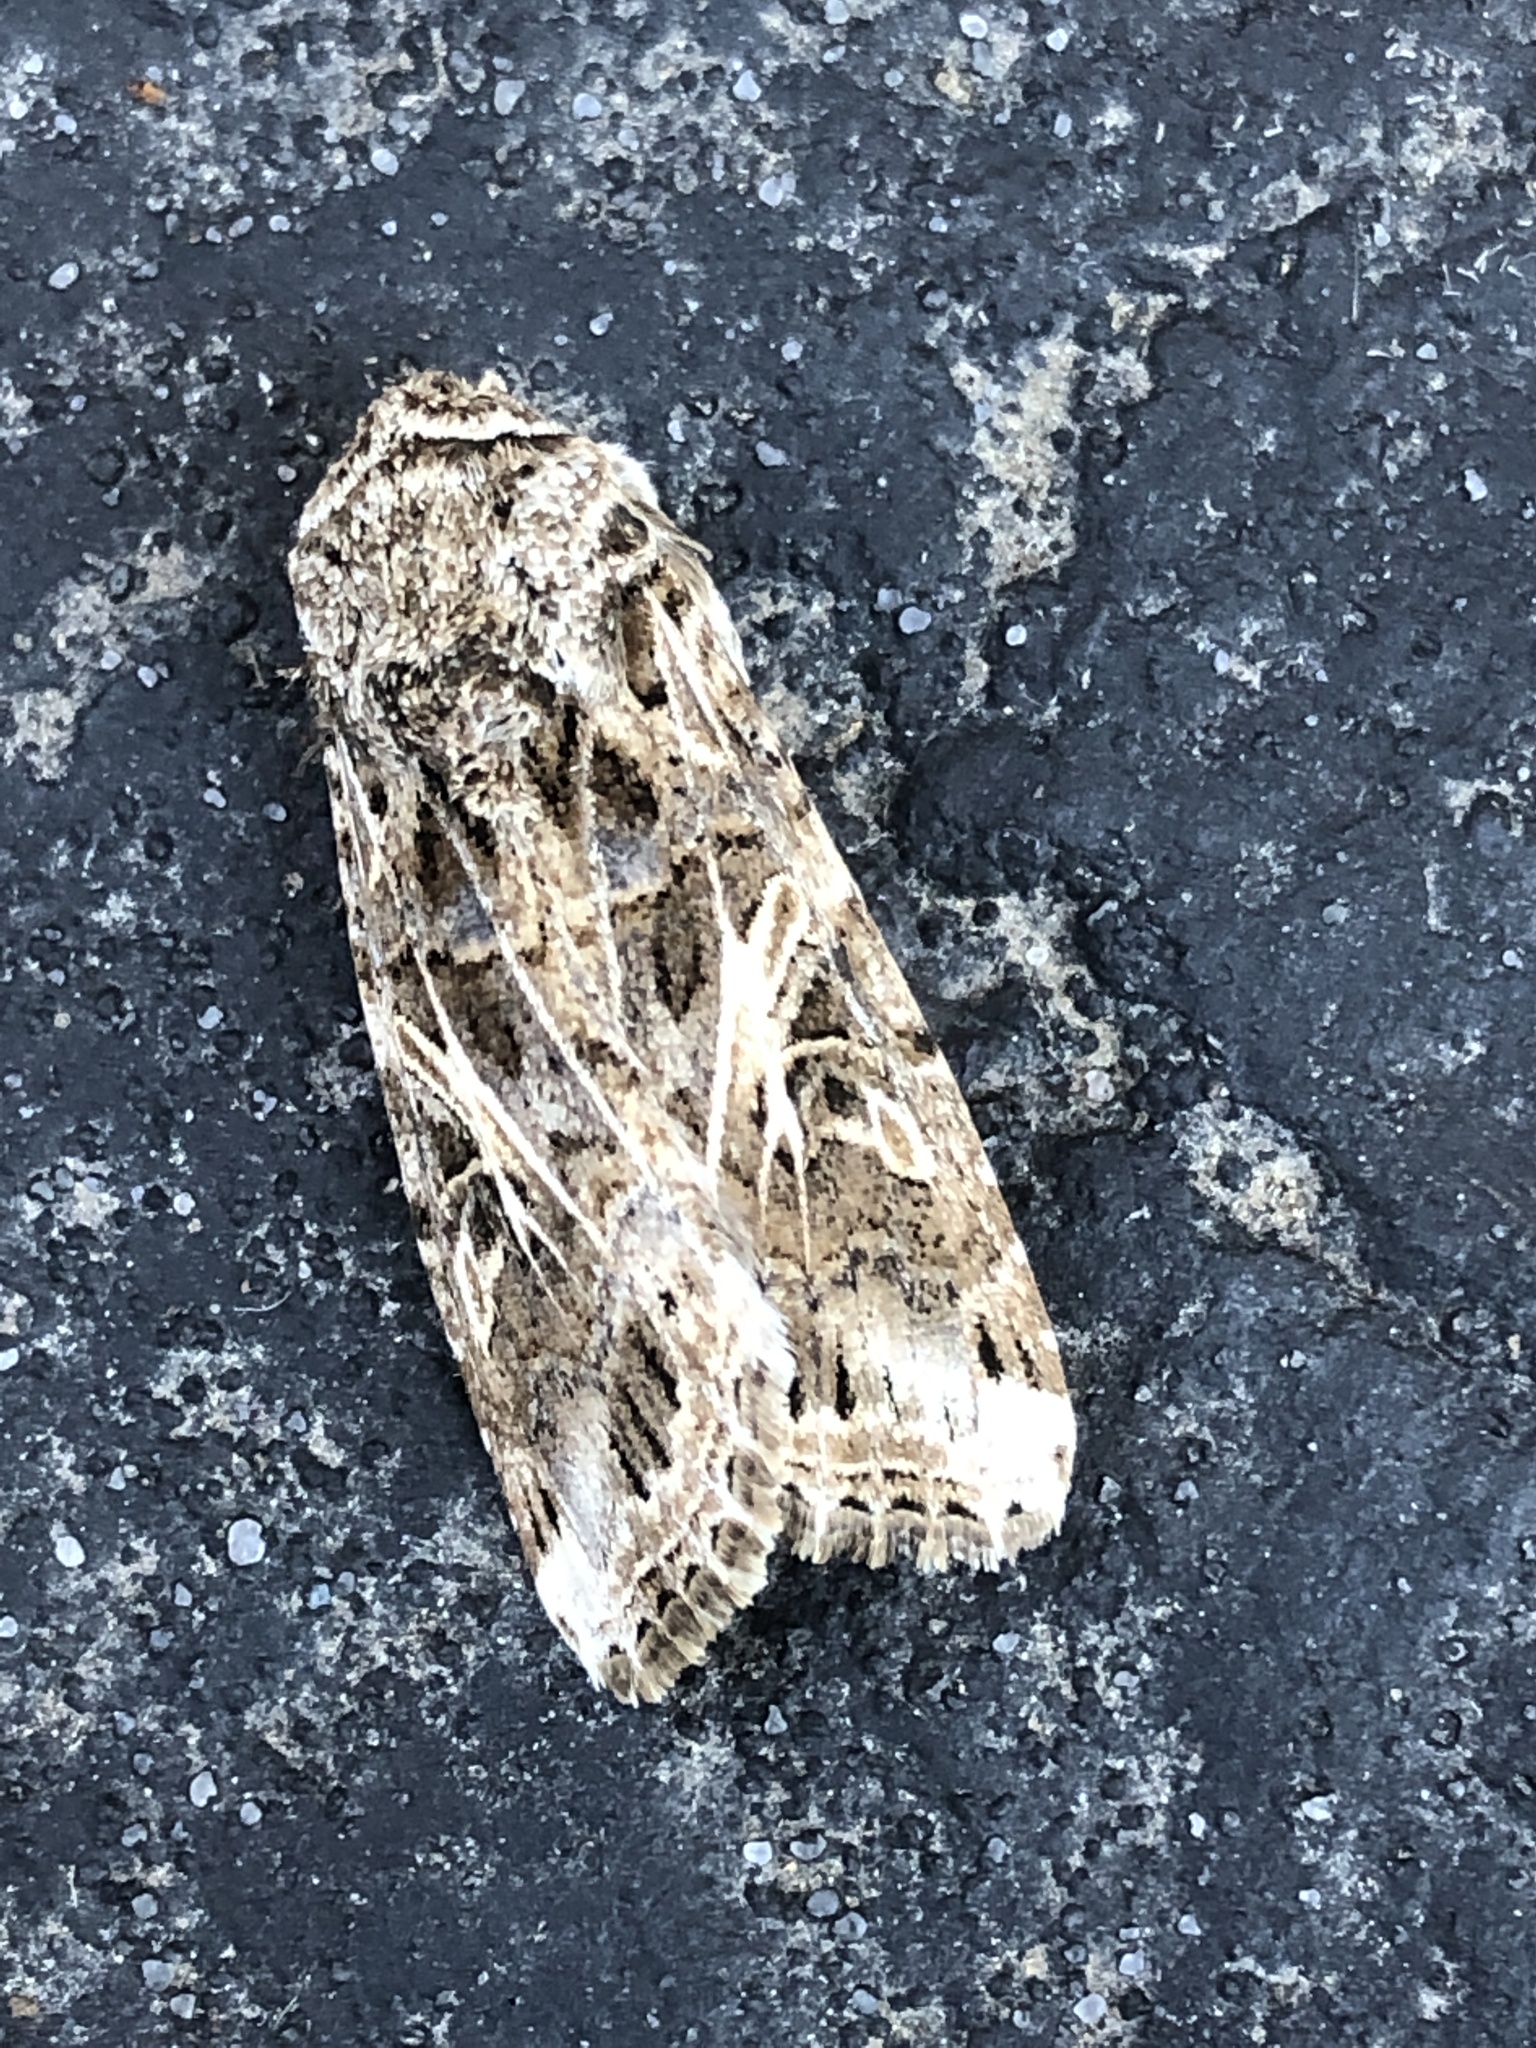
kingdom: Animalia
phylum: Arthropoda
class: Insecta
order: Lepidoptera
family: Noctuidae
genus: Spodoptera
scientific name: Spodoptera ornithogalli
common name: Yellow-striped armyworm
